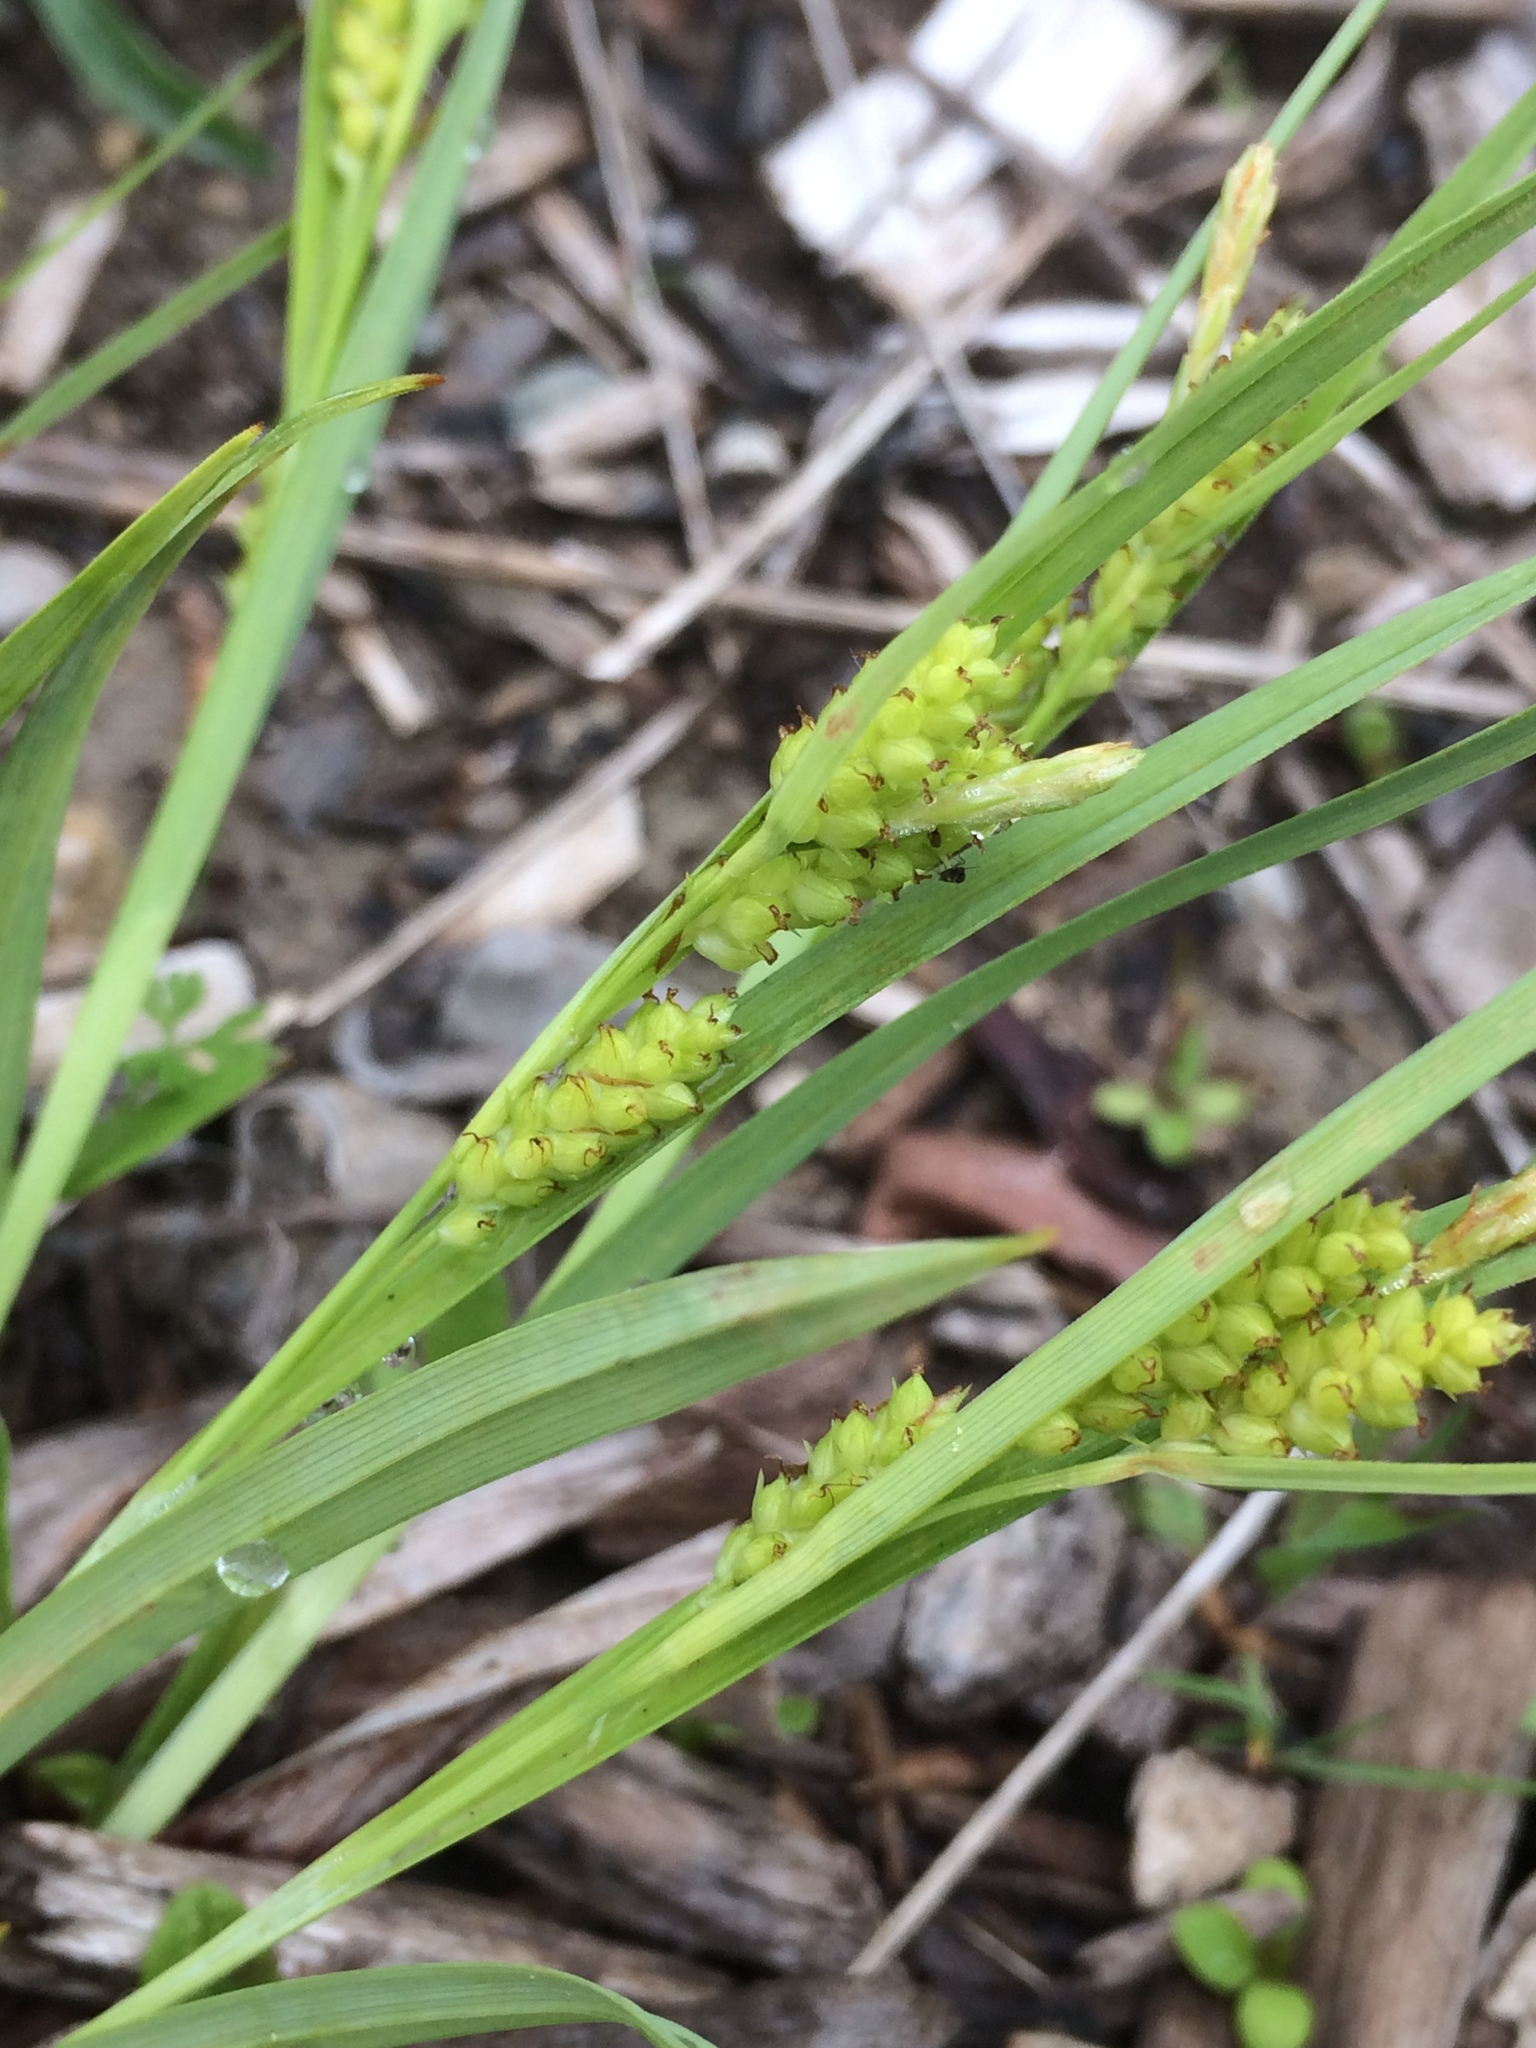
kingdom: Plantae
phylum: Tracheophyta
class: Liliopsida
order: Poales
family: Cyperaceae
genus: Carex
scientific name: Carex granularis
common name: Granular sedge
